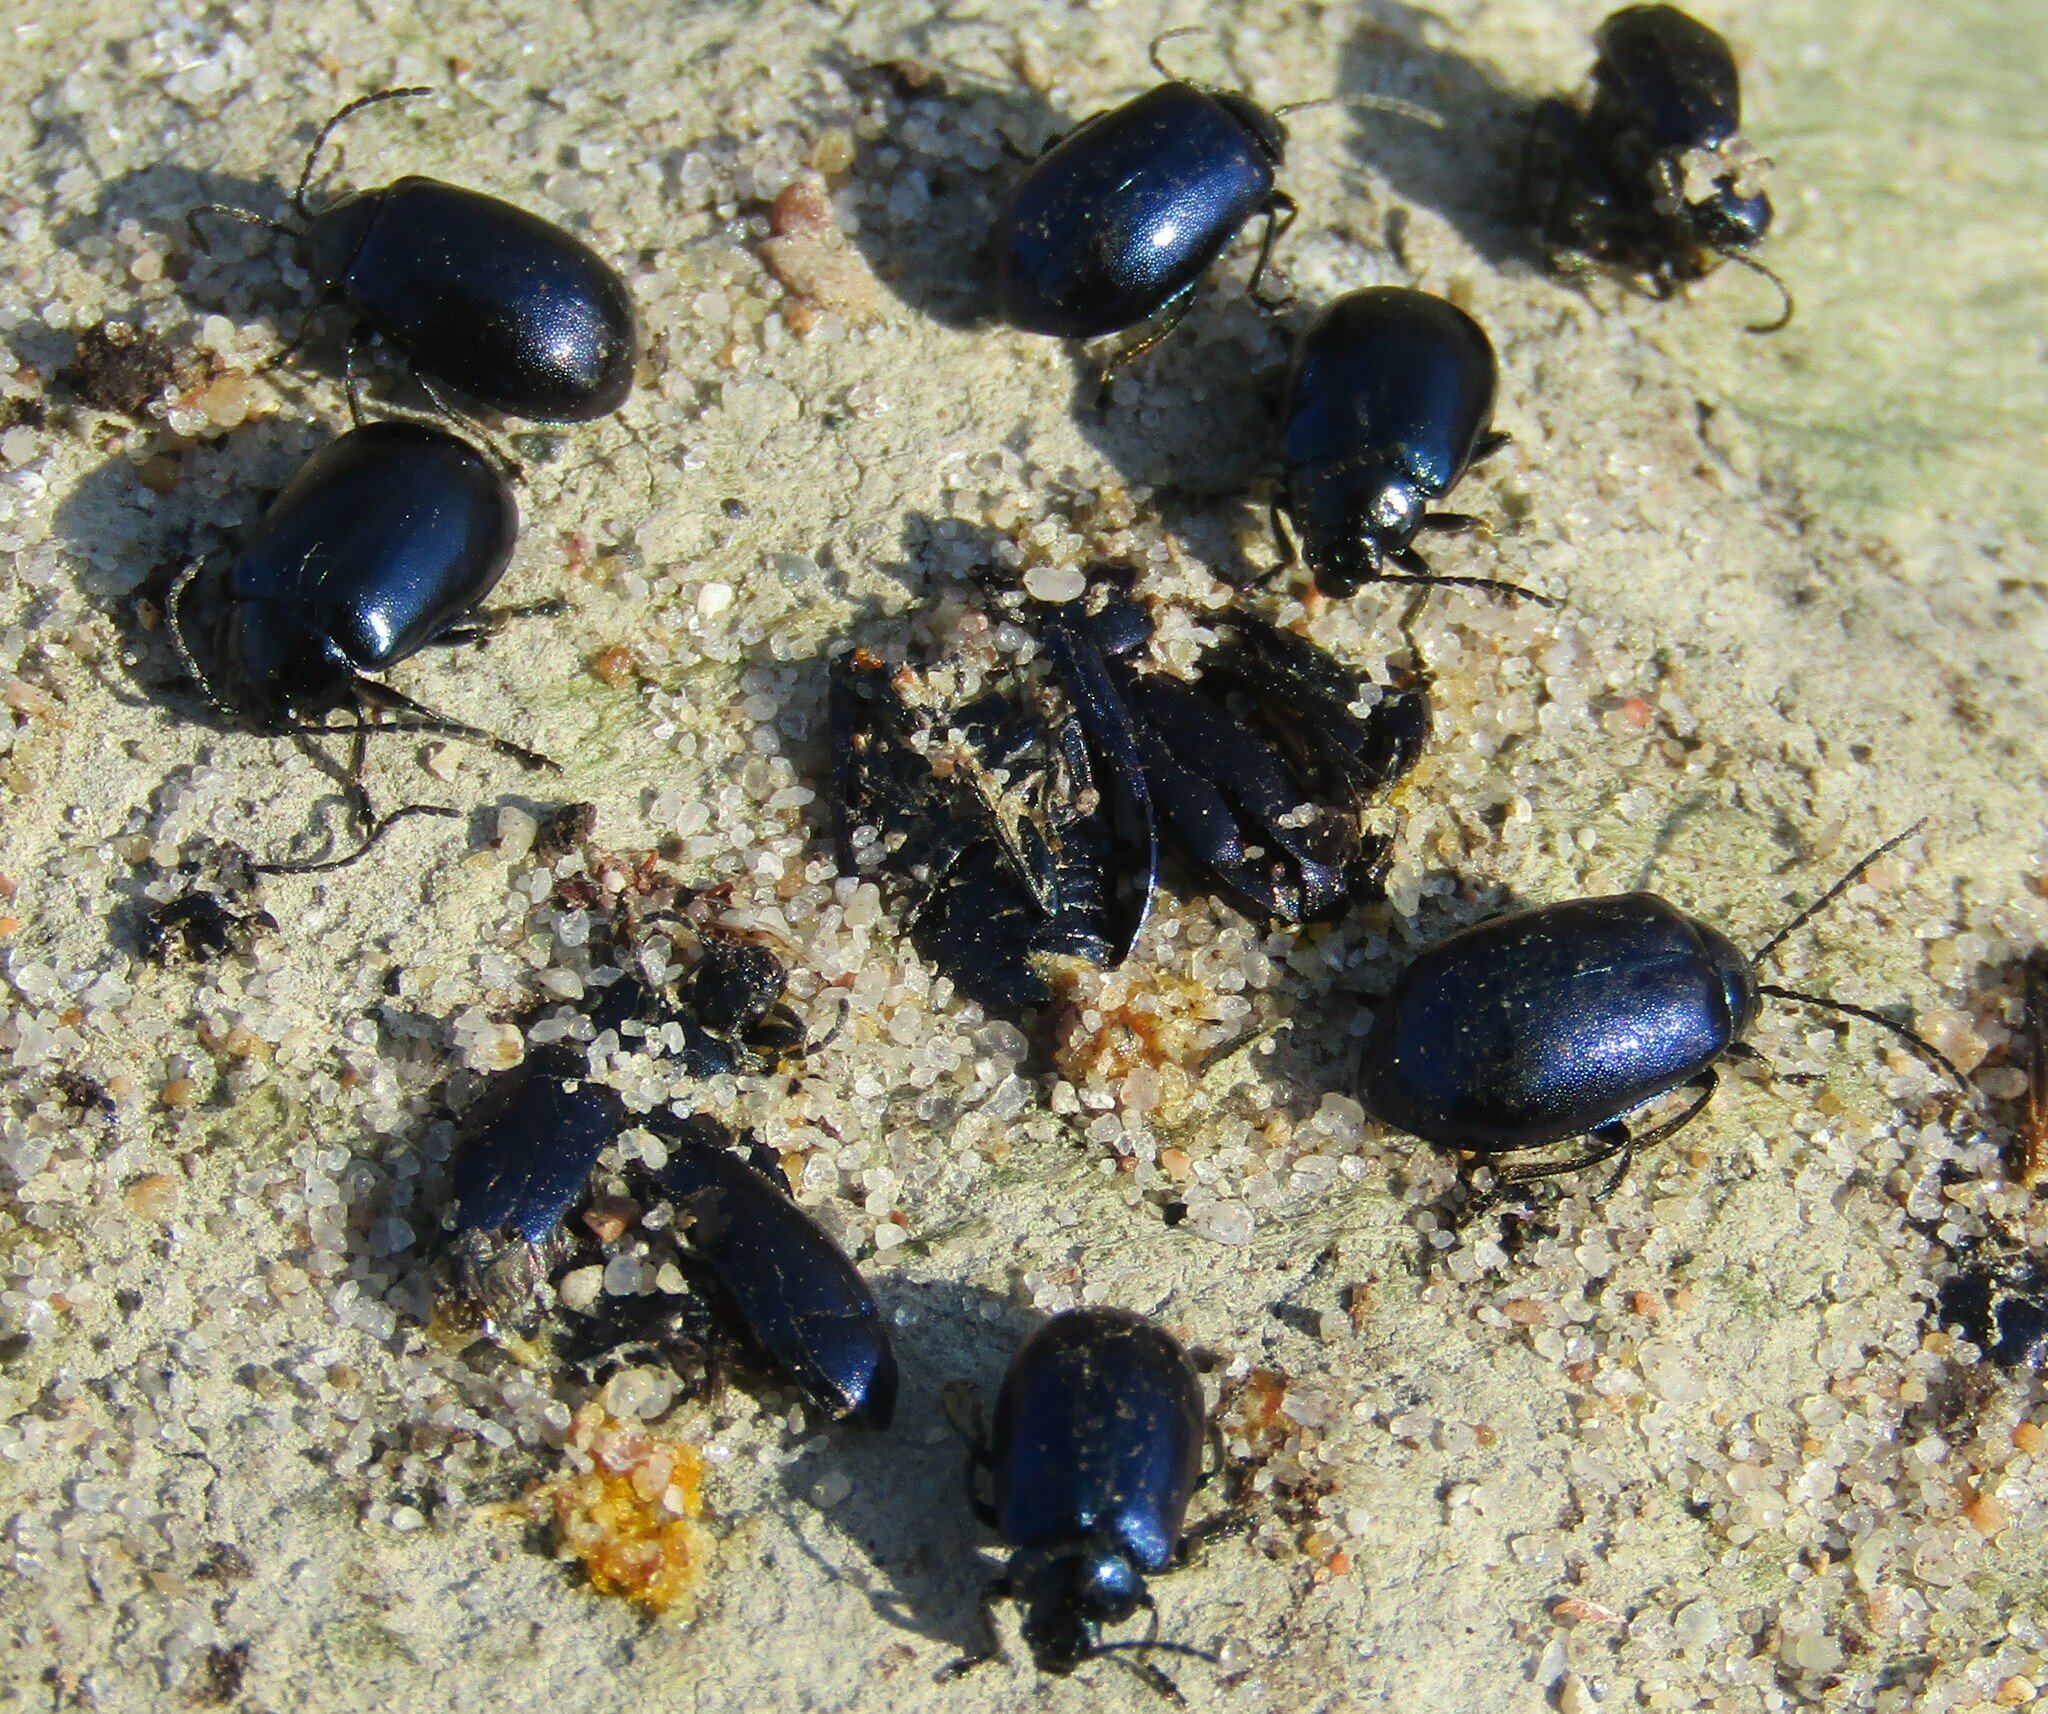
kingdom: Animalia
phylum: Arthropoda
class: Insecta
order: Coleoptera
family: Chrysomelidae
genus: Agelastica
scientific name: Agelastica alni
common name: Alder leaf beetle
